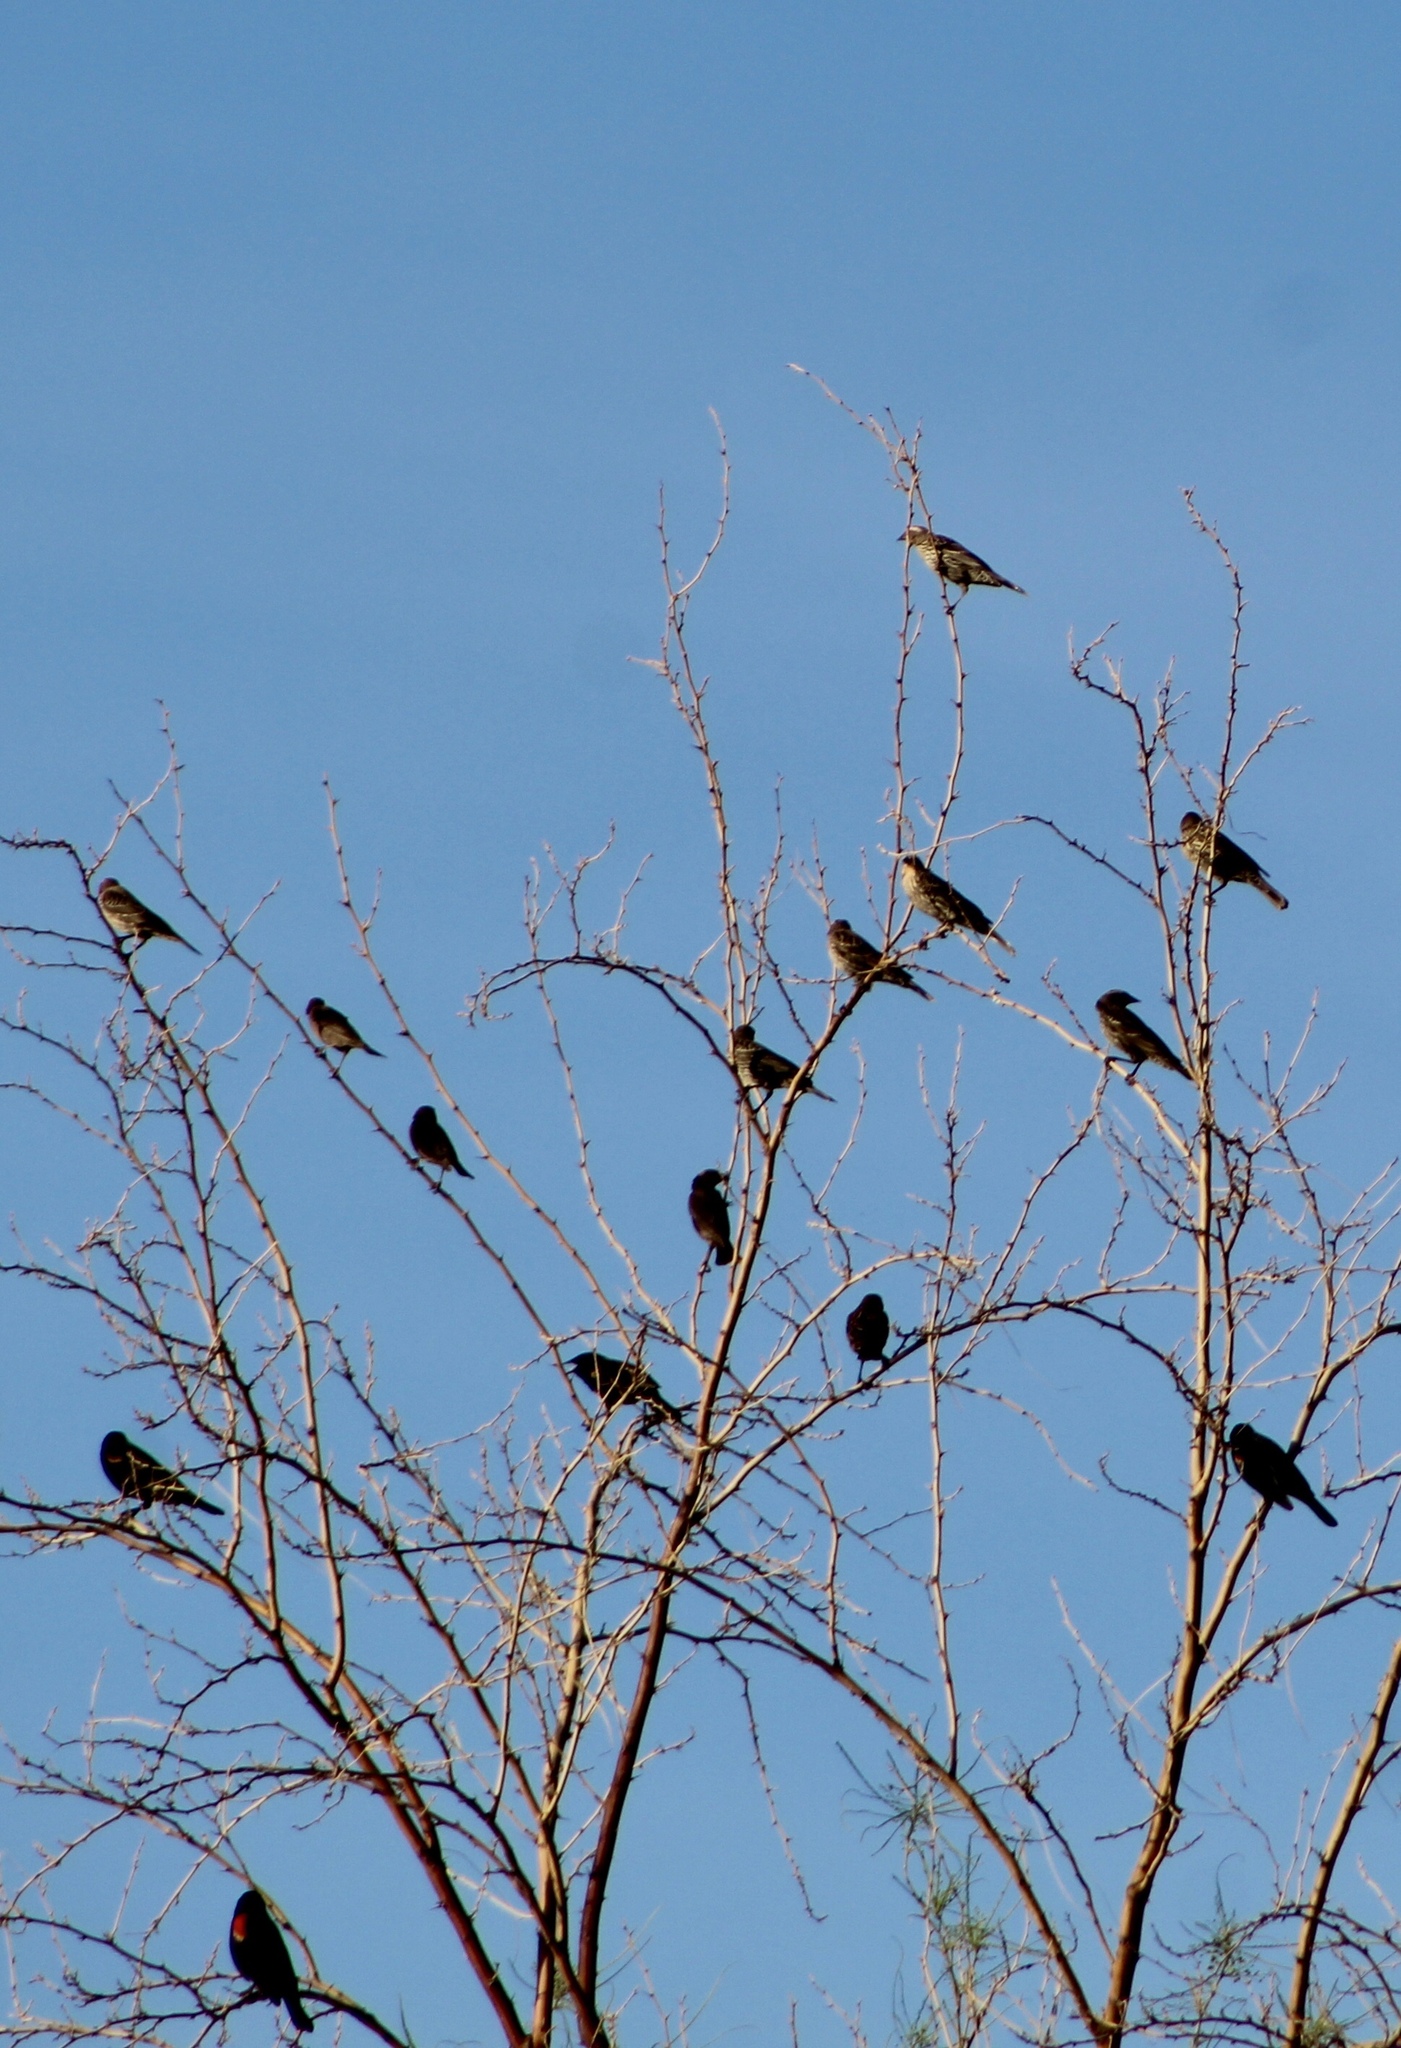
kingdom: Animalia
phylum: Chordata
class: Aves
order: Passeriformes
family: Icteridae
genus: Agelaius
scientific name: Agelaius phoeniceus
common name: Red-winged blackbird
